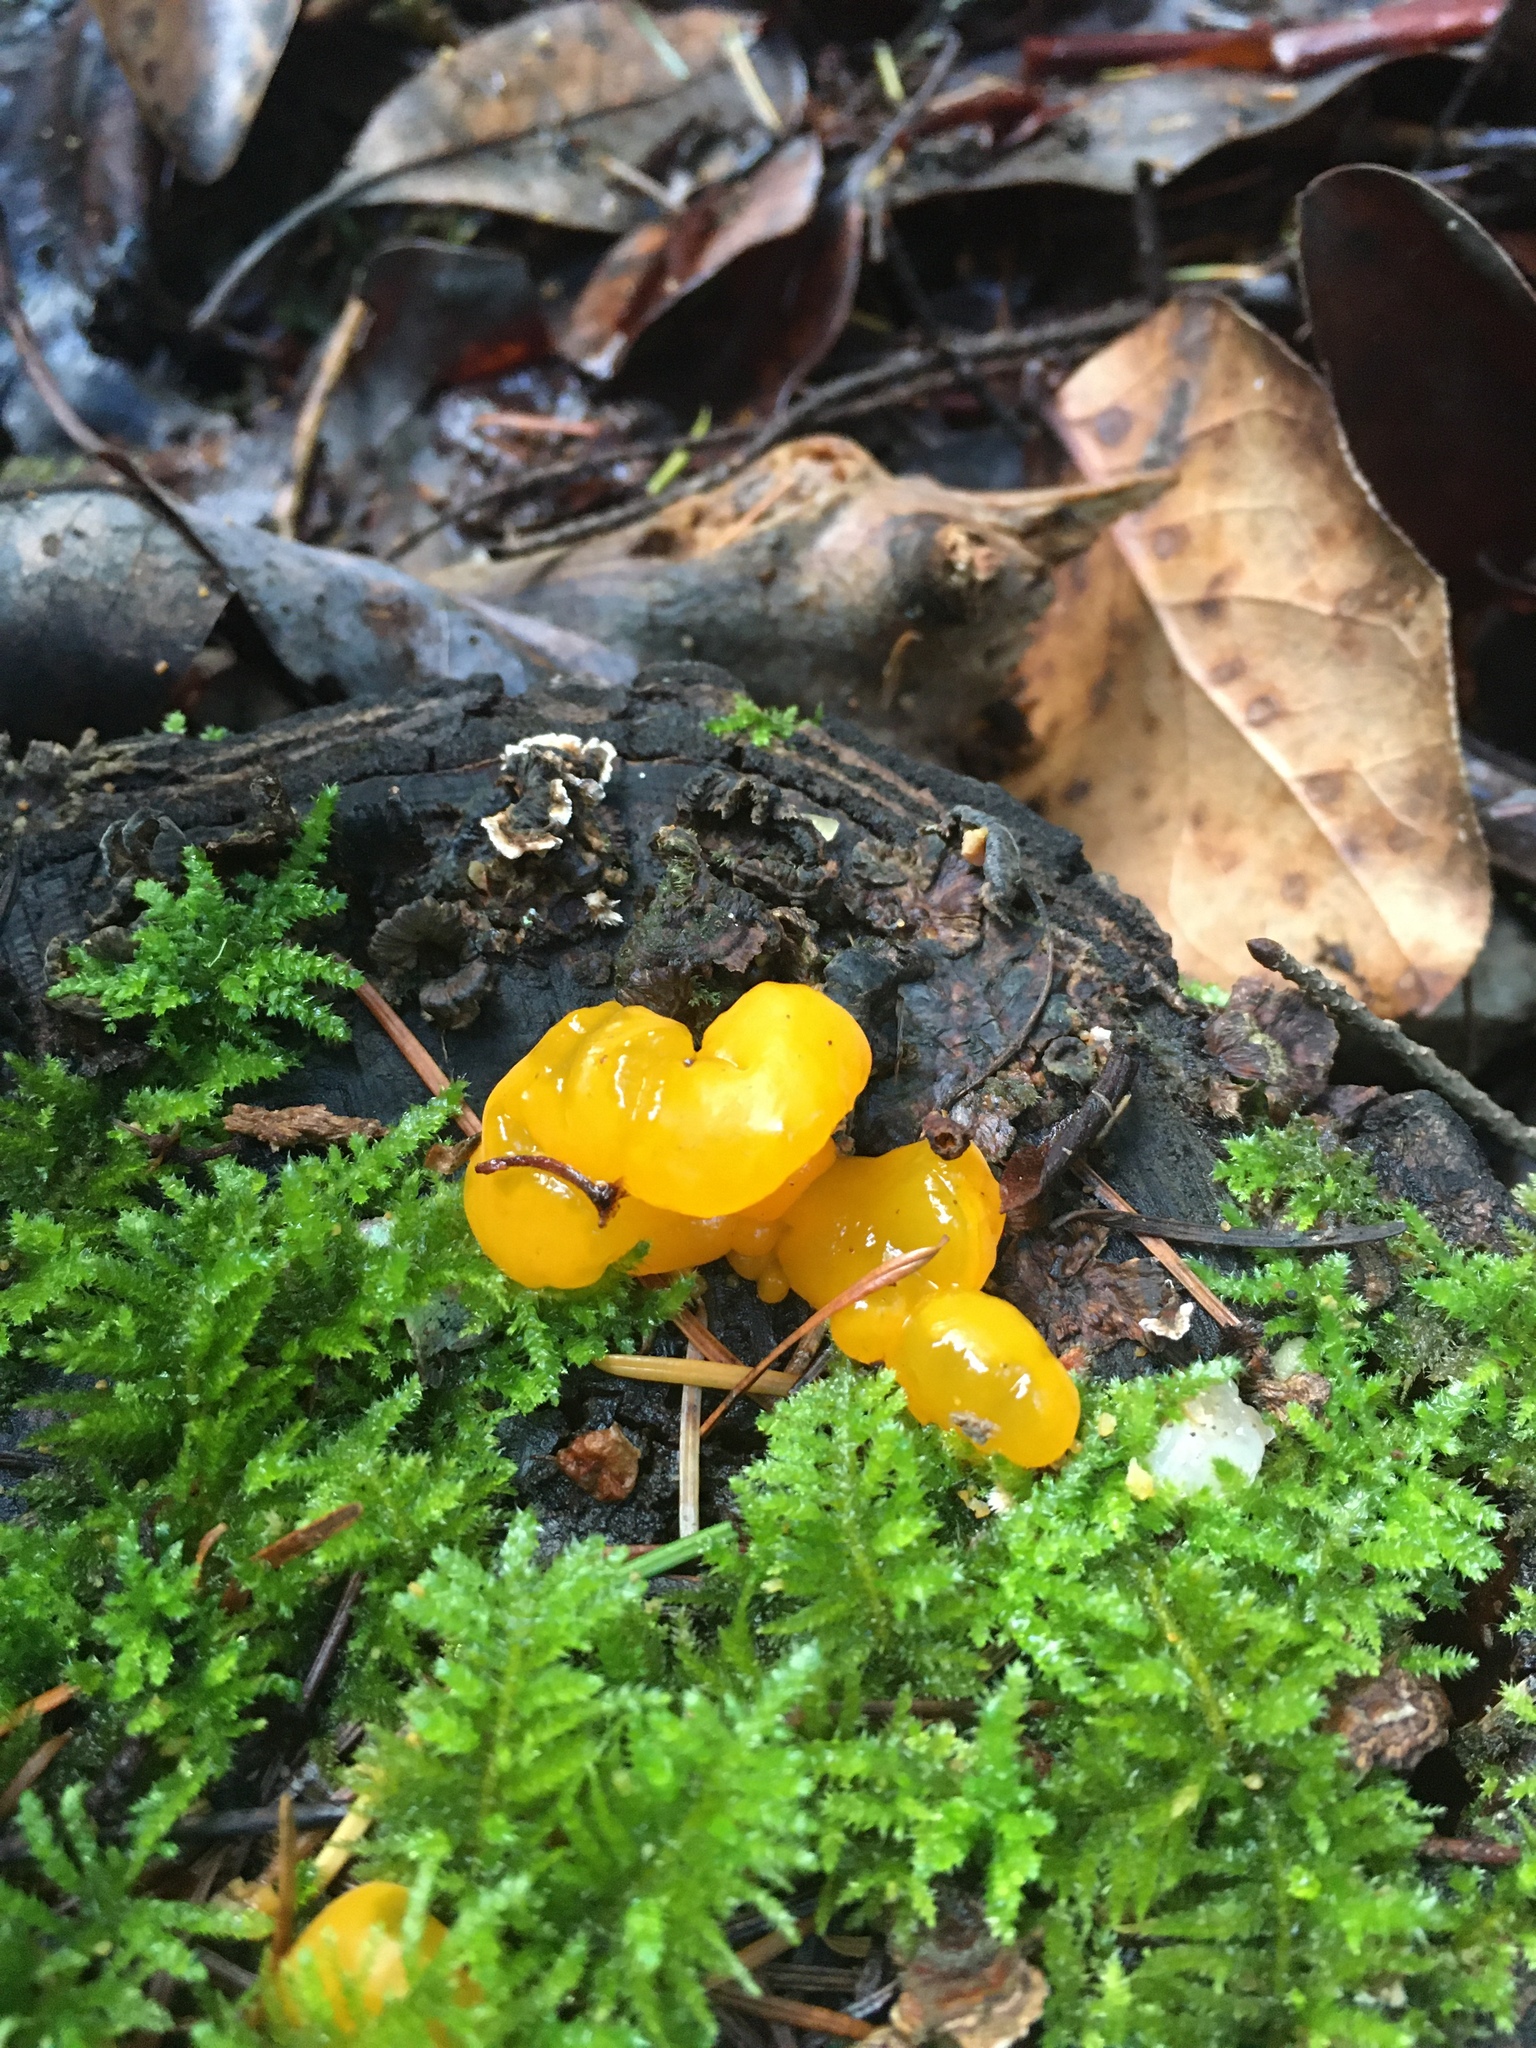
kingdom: Fungi
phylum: Basidiomycota
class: Dacrymycetes
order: Dacrymycetales
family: Dacrymycetaceae
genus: Dacrymyces
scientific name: Dacrymyces chrysospermus
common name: Orange jelly spot
